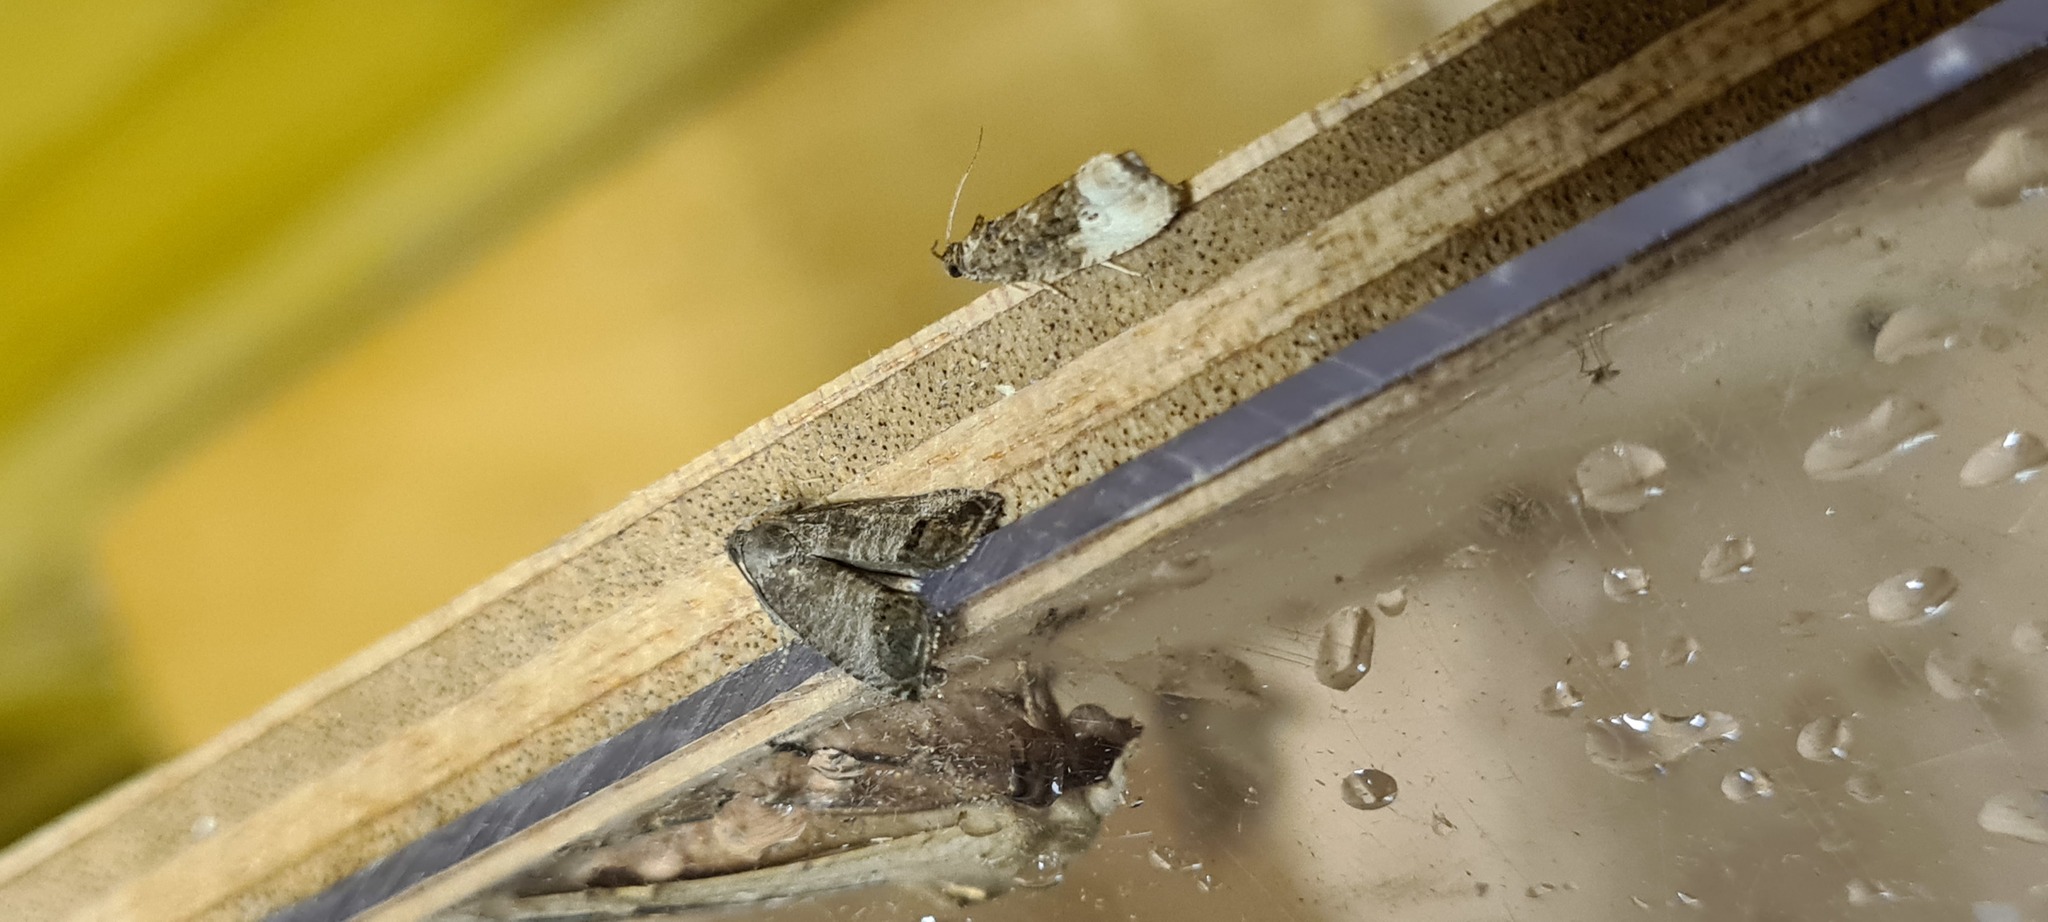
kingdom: Animalia
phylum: Arthropoda
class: Insecta
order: Lepidoptera
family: Tortricidae
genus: Cydia
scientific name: Cydia pomonella
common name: Codling moth
